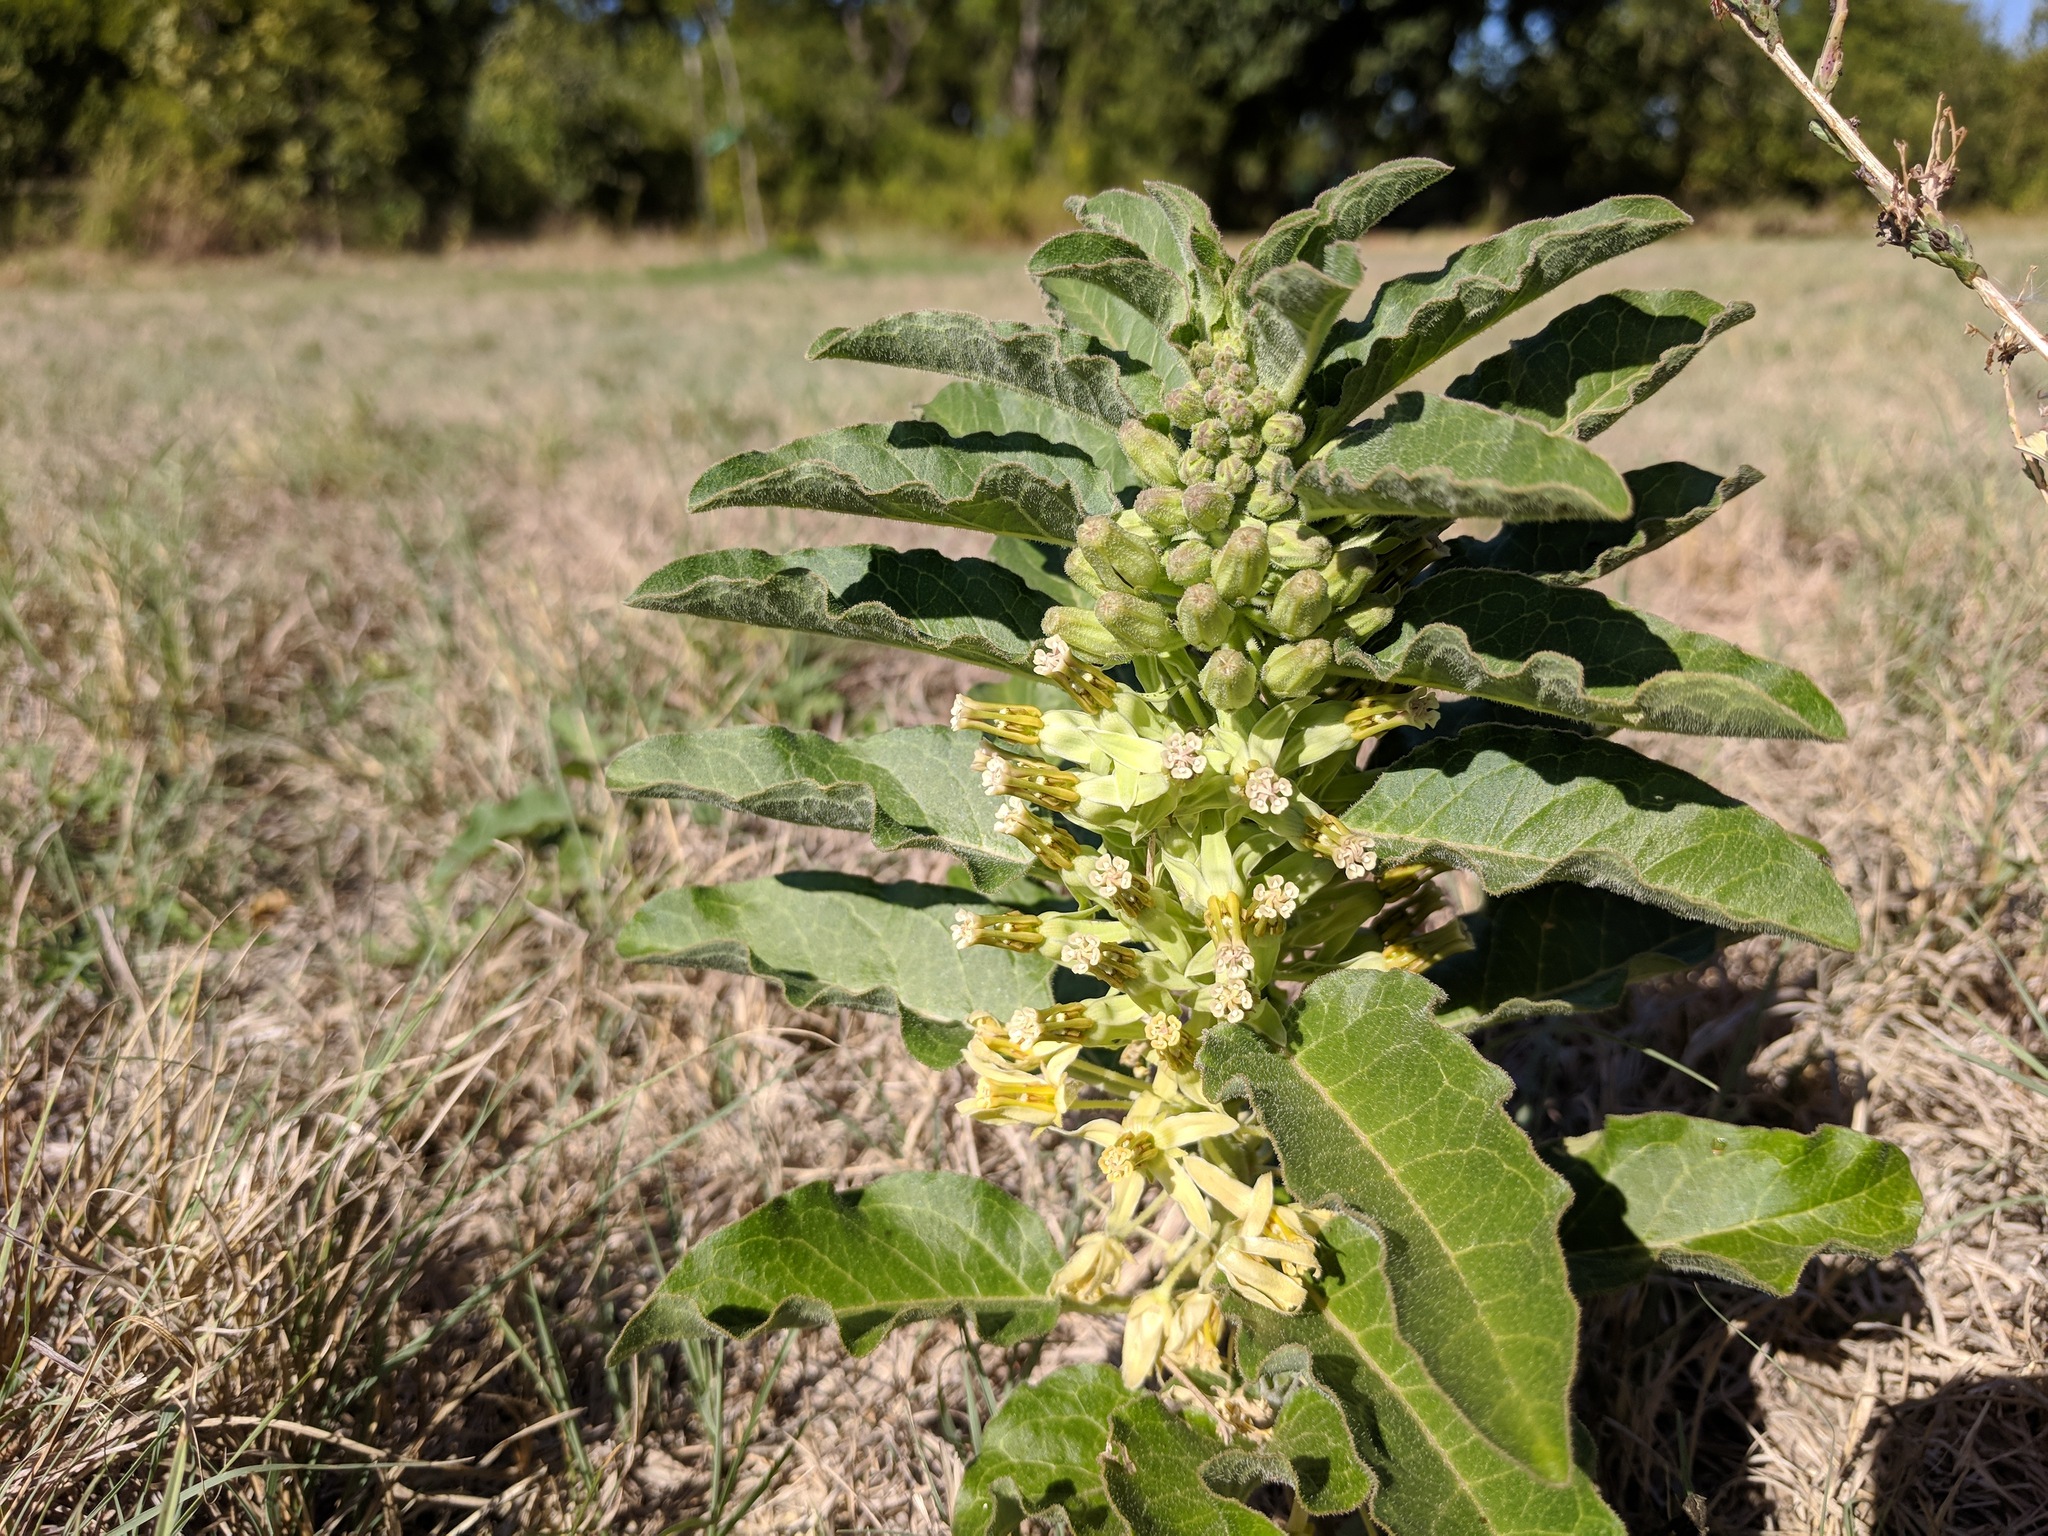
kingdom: Plantae
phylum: Tracheophyta
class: Magnoliopsida
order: Gentianales
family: Apocynaceae
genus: Asclepias
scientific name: Asclepias oenotheroides
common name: Zizotes milkweed
